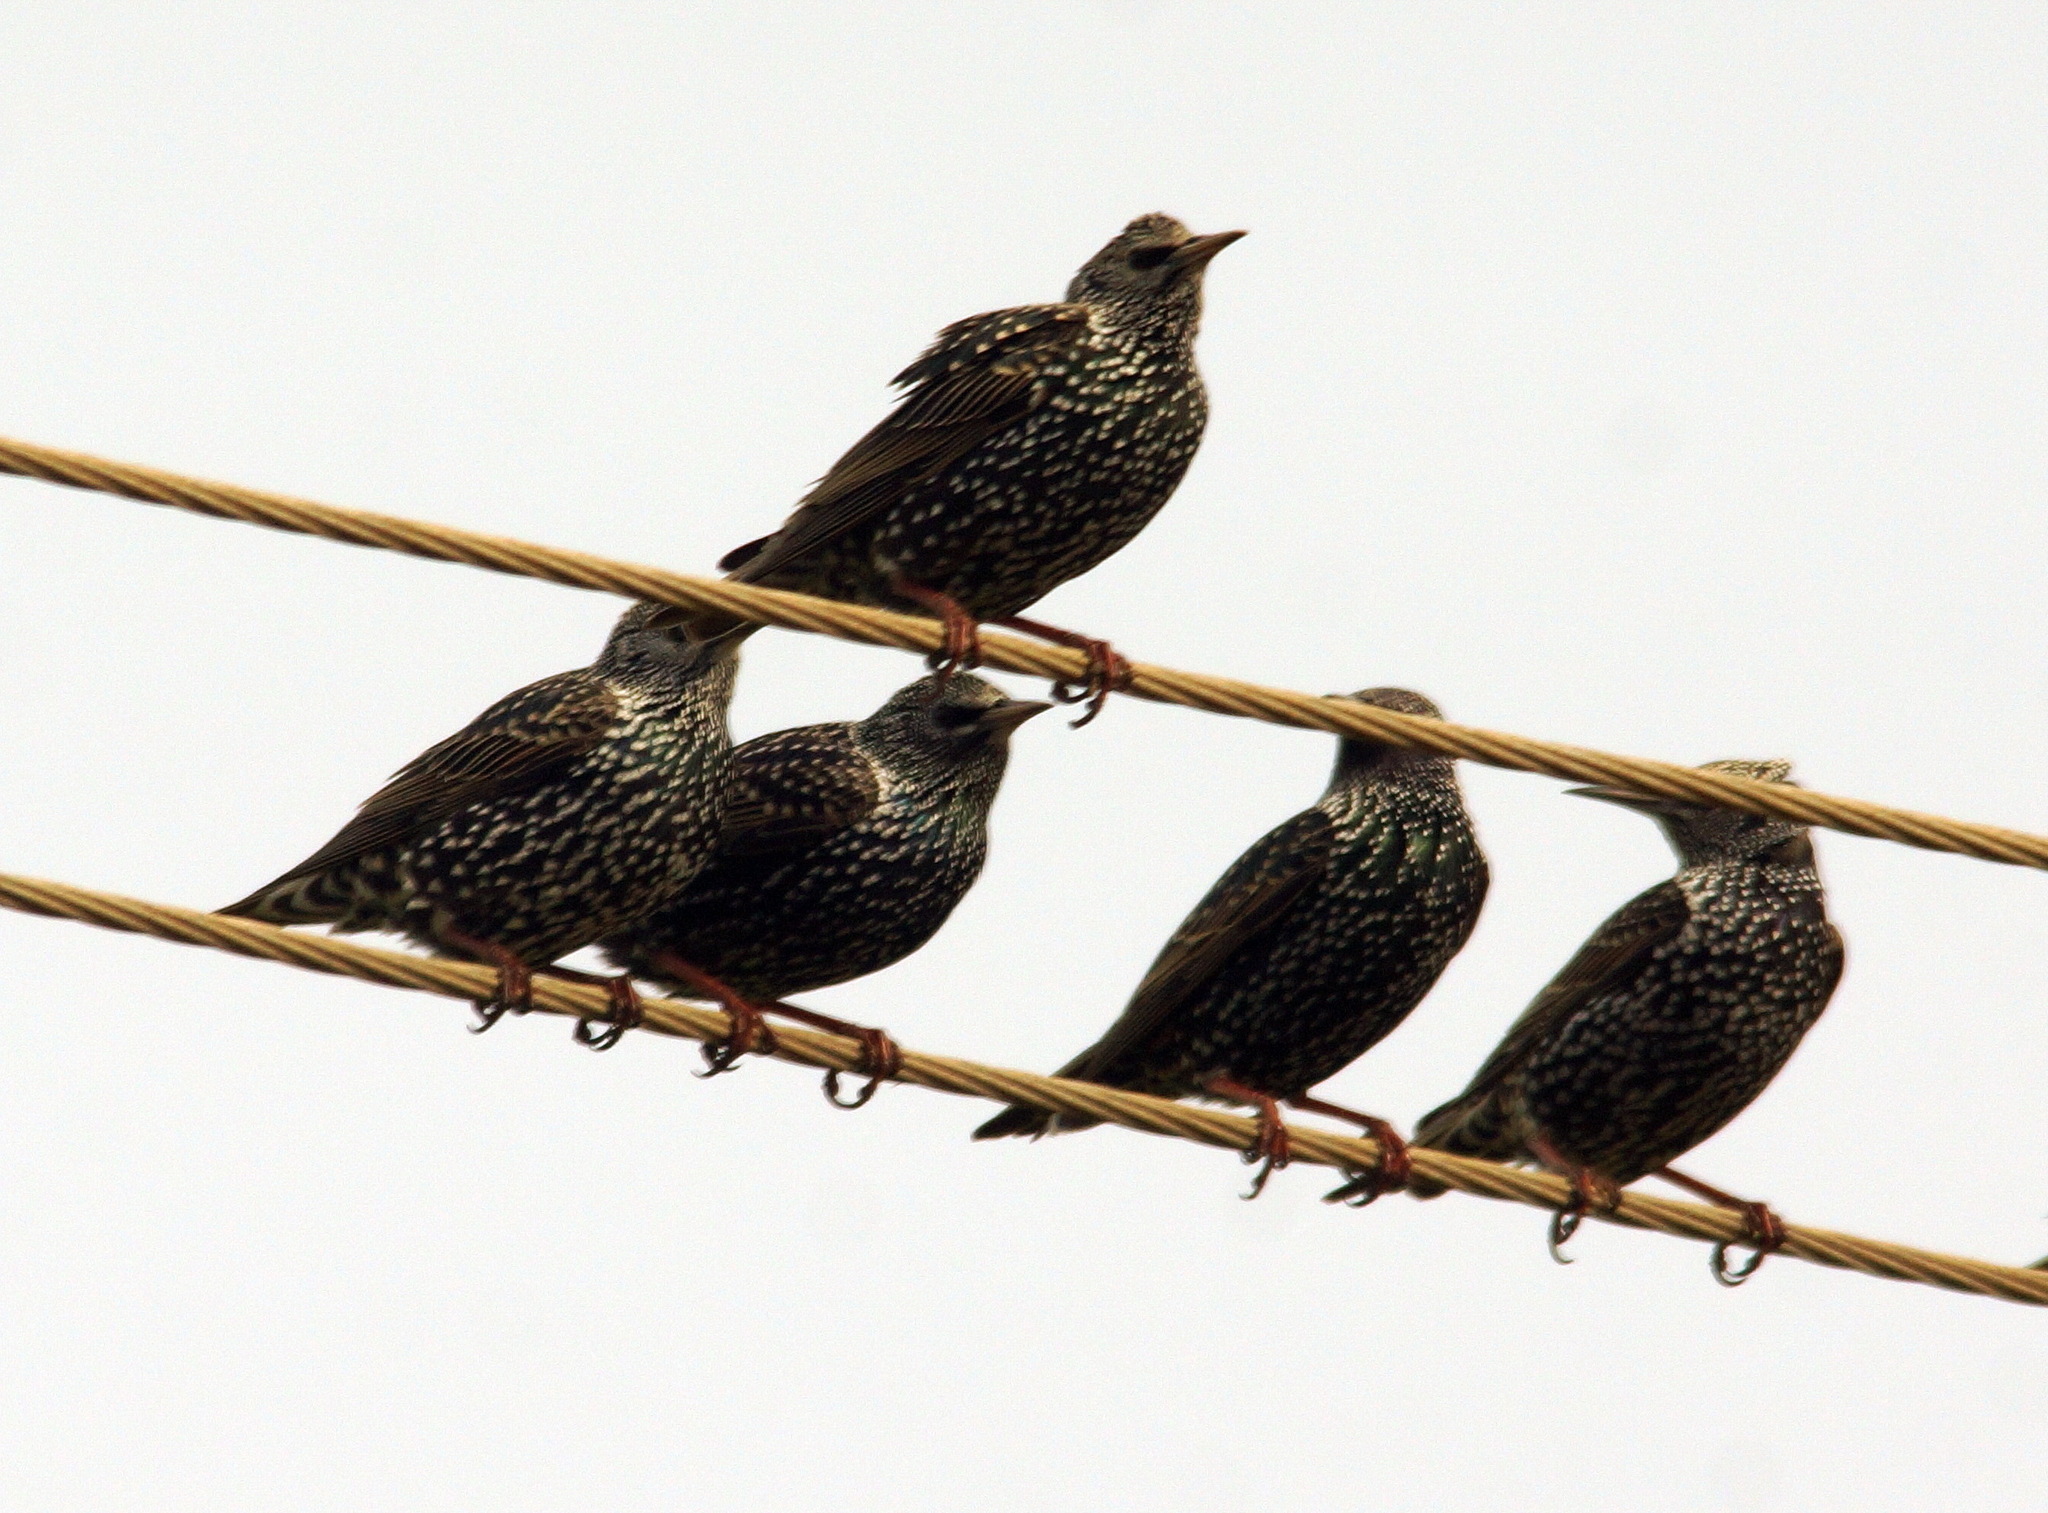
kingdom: Animalia
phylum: Chordata
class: Aves
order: Passeriformes
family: Sturnidae
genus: Sturnus
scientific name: Sturnus vulgaris
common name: Common starling
